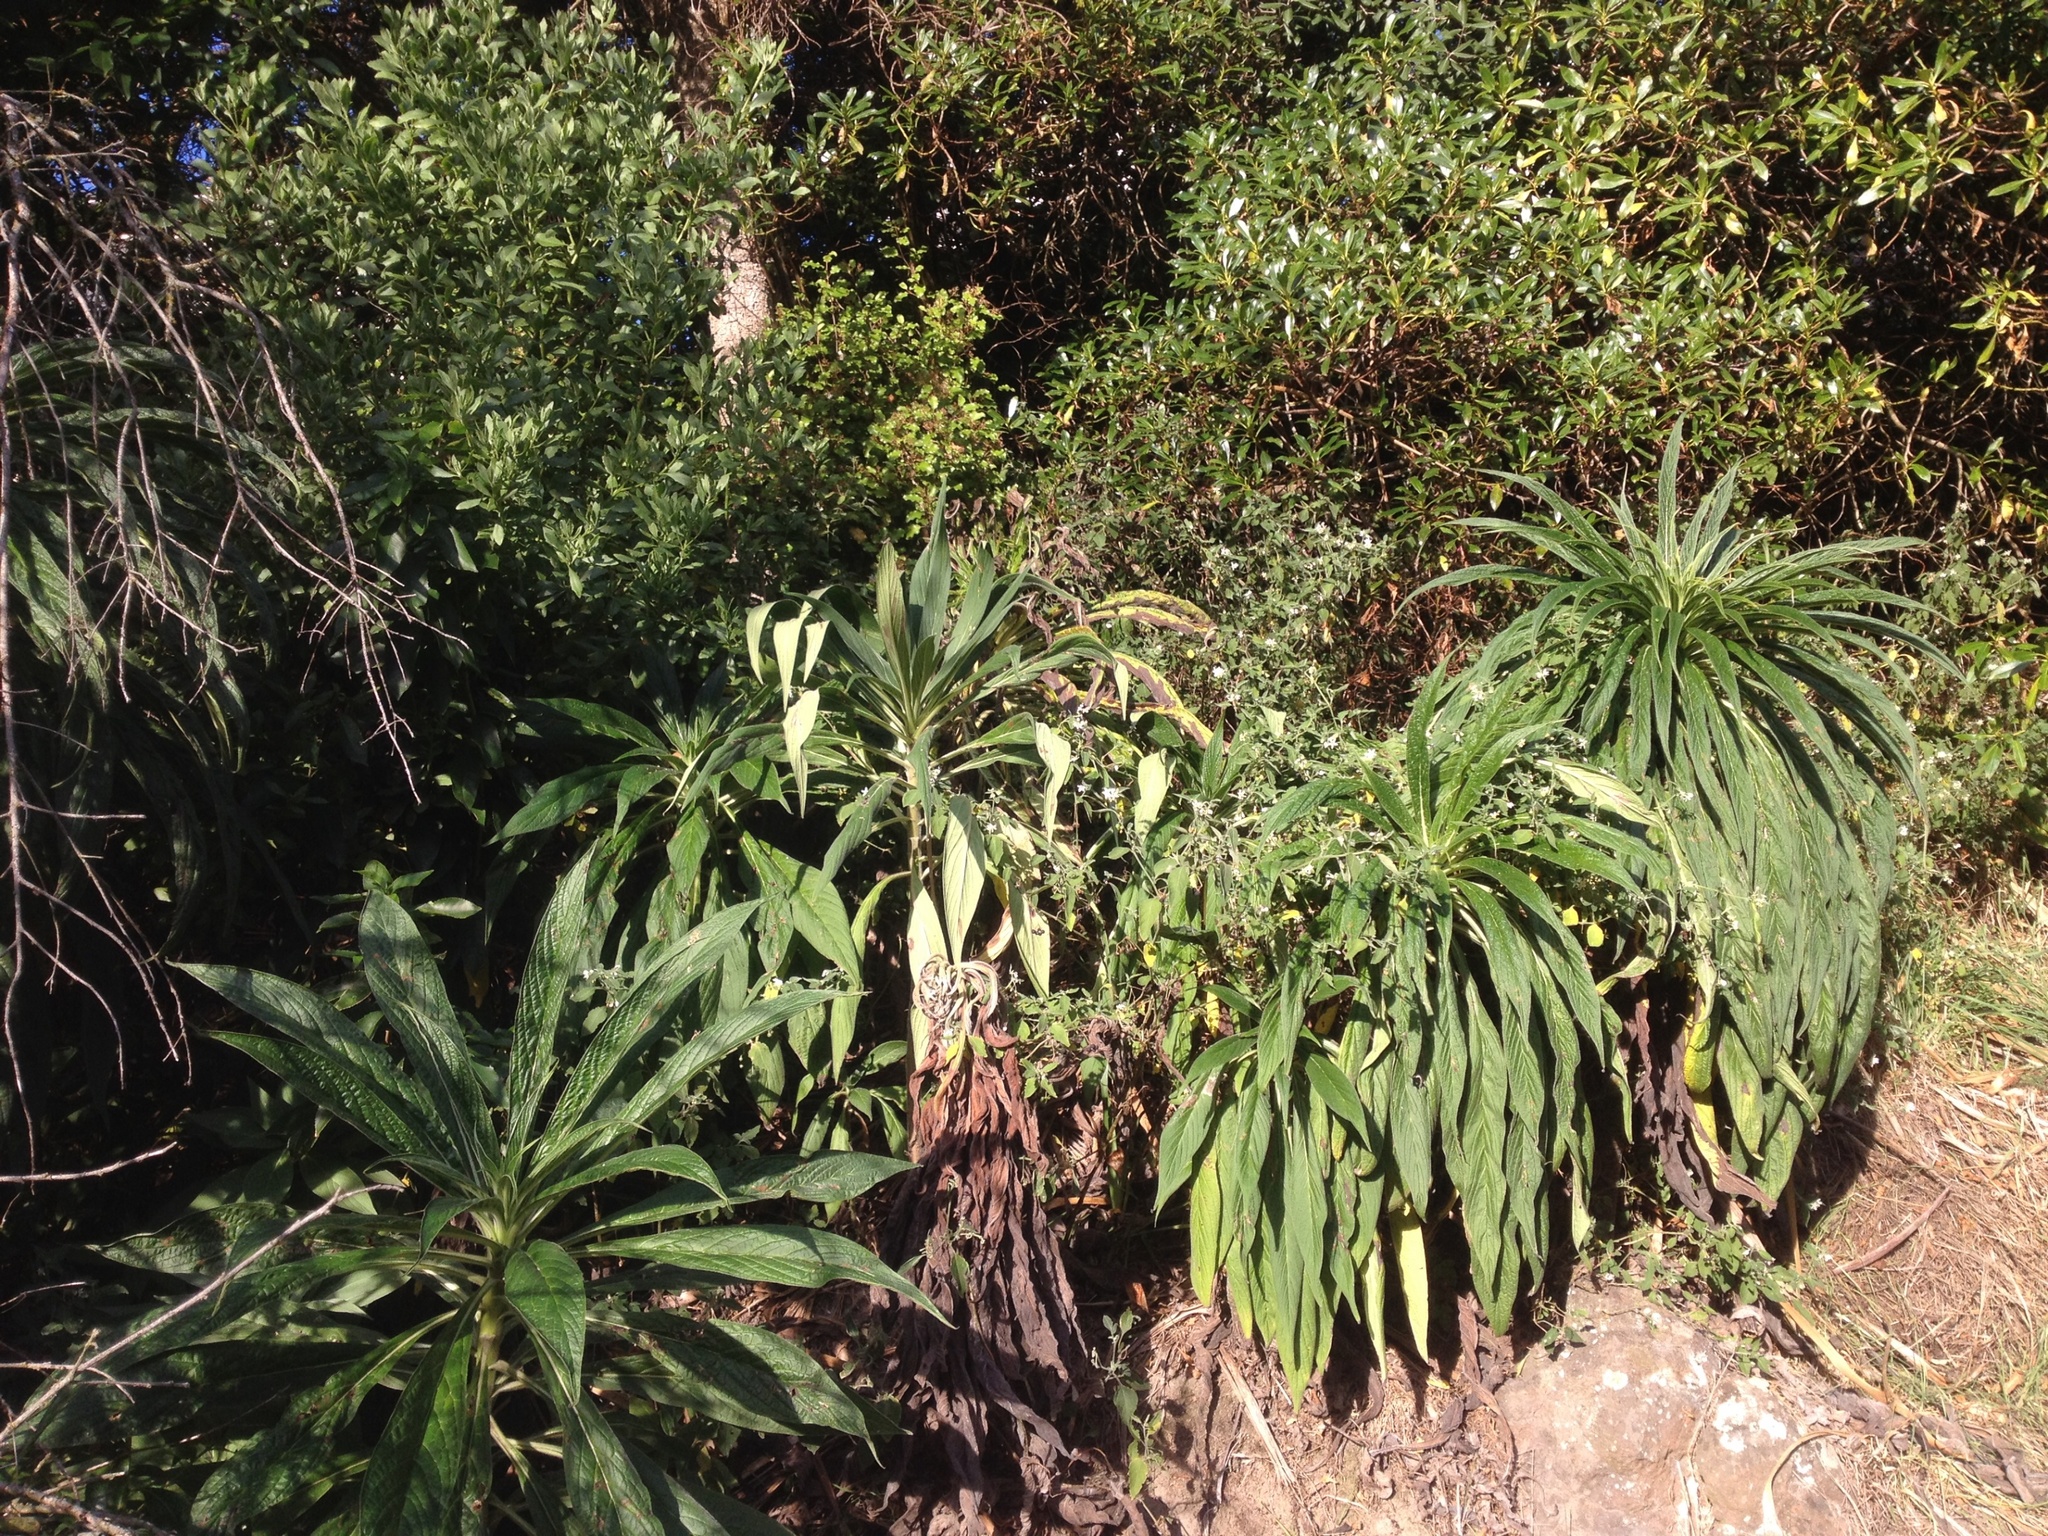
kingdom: Plantae
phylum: Tracheophyta
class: Magnoliopsida
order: Boraginales
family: Boraginaceae
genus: Echium
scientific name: Echium pininana
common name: Giant viper's-bugloss
